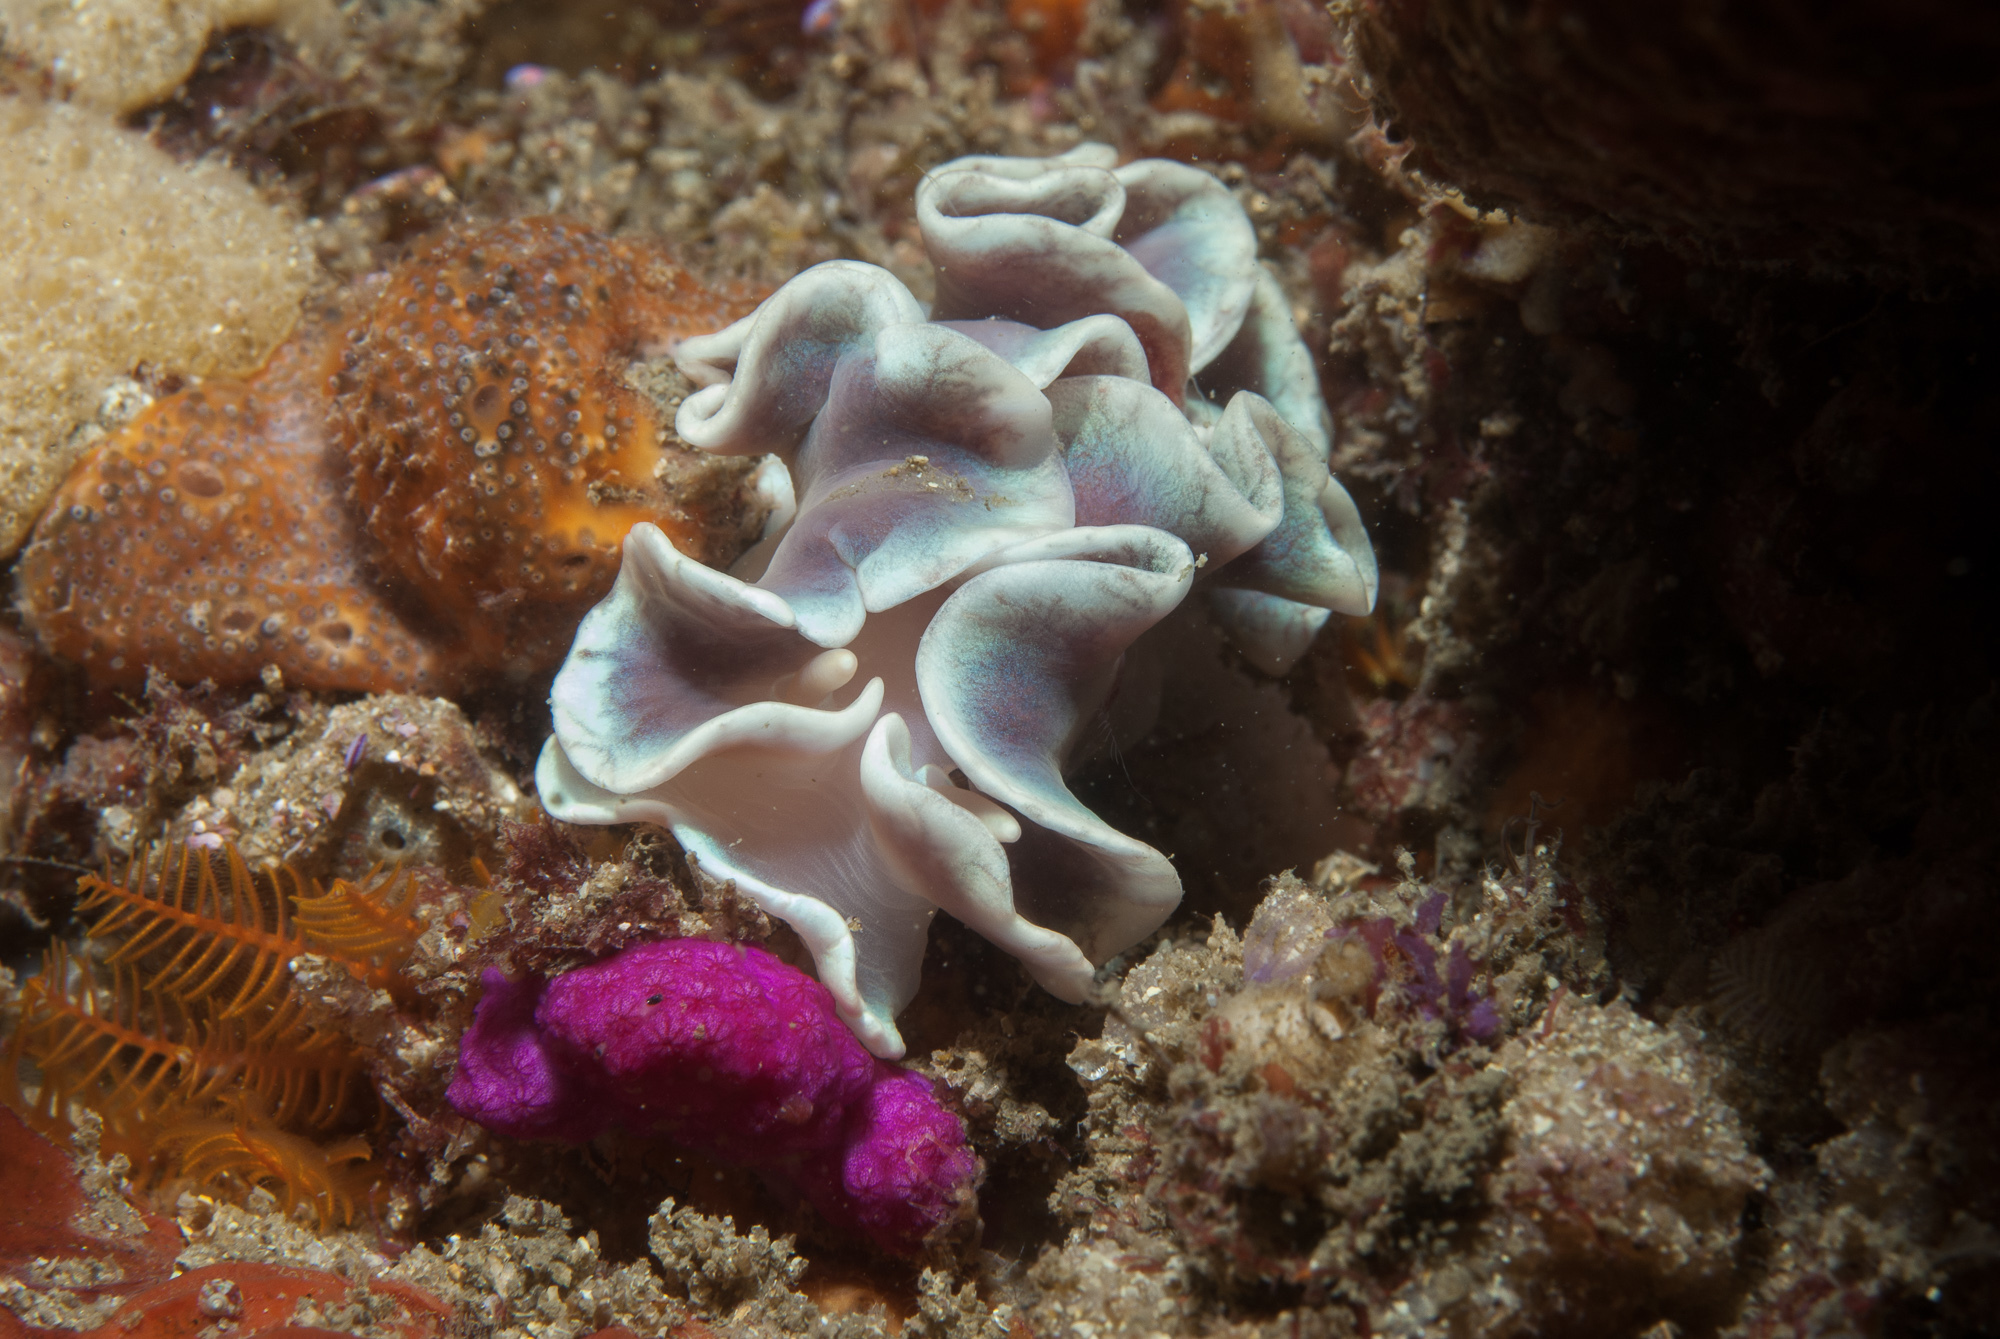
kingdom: Animalia
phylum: Mollusca
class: Gastropoda
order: Nudibranchia
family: Lemindidae
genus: Leminda
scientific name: Leminda millecra
